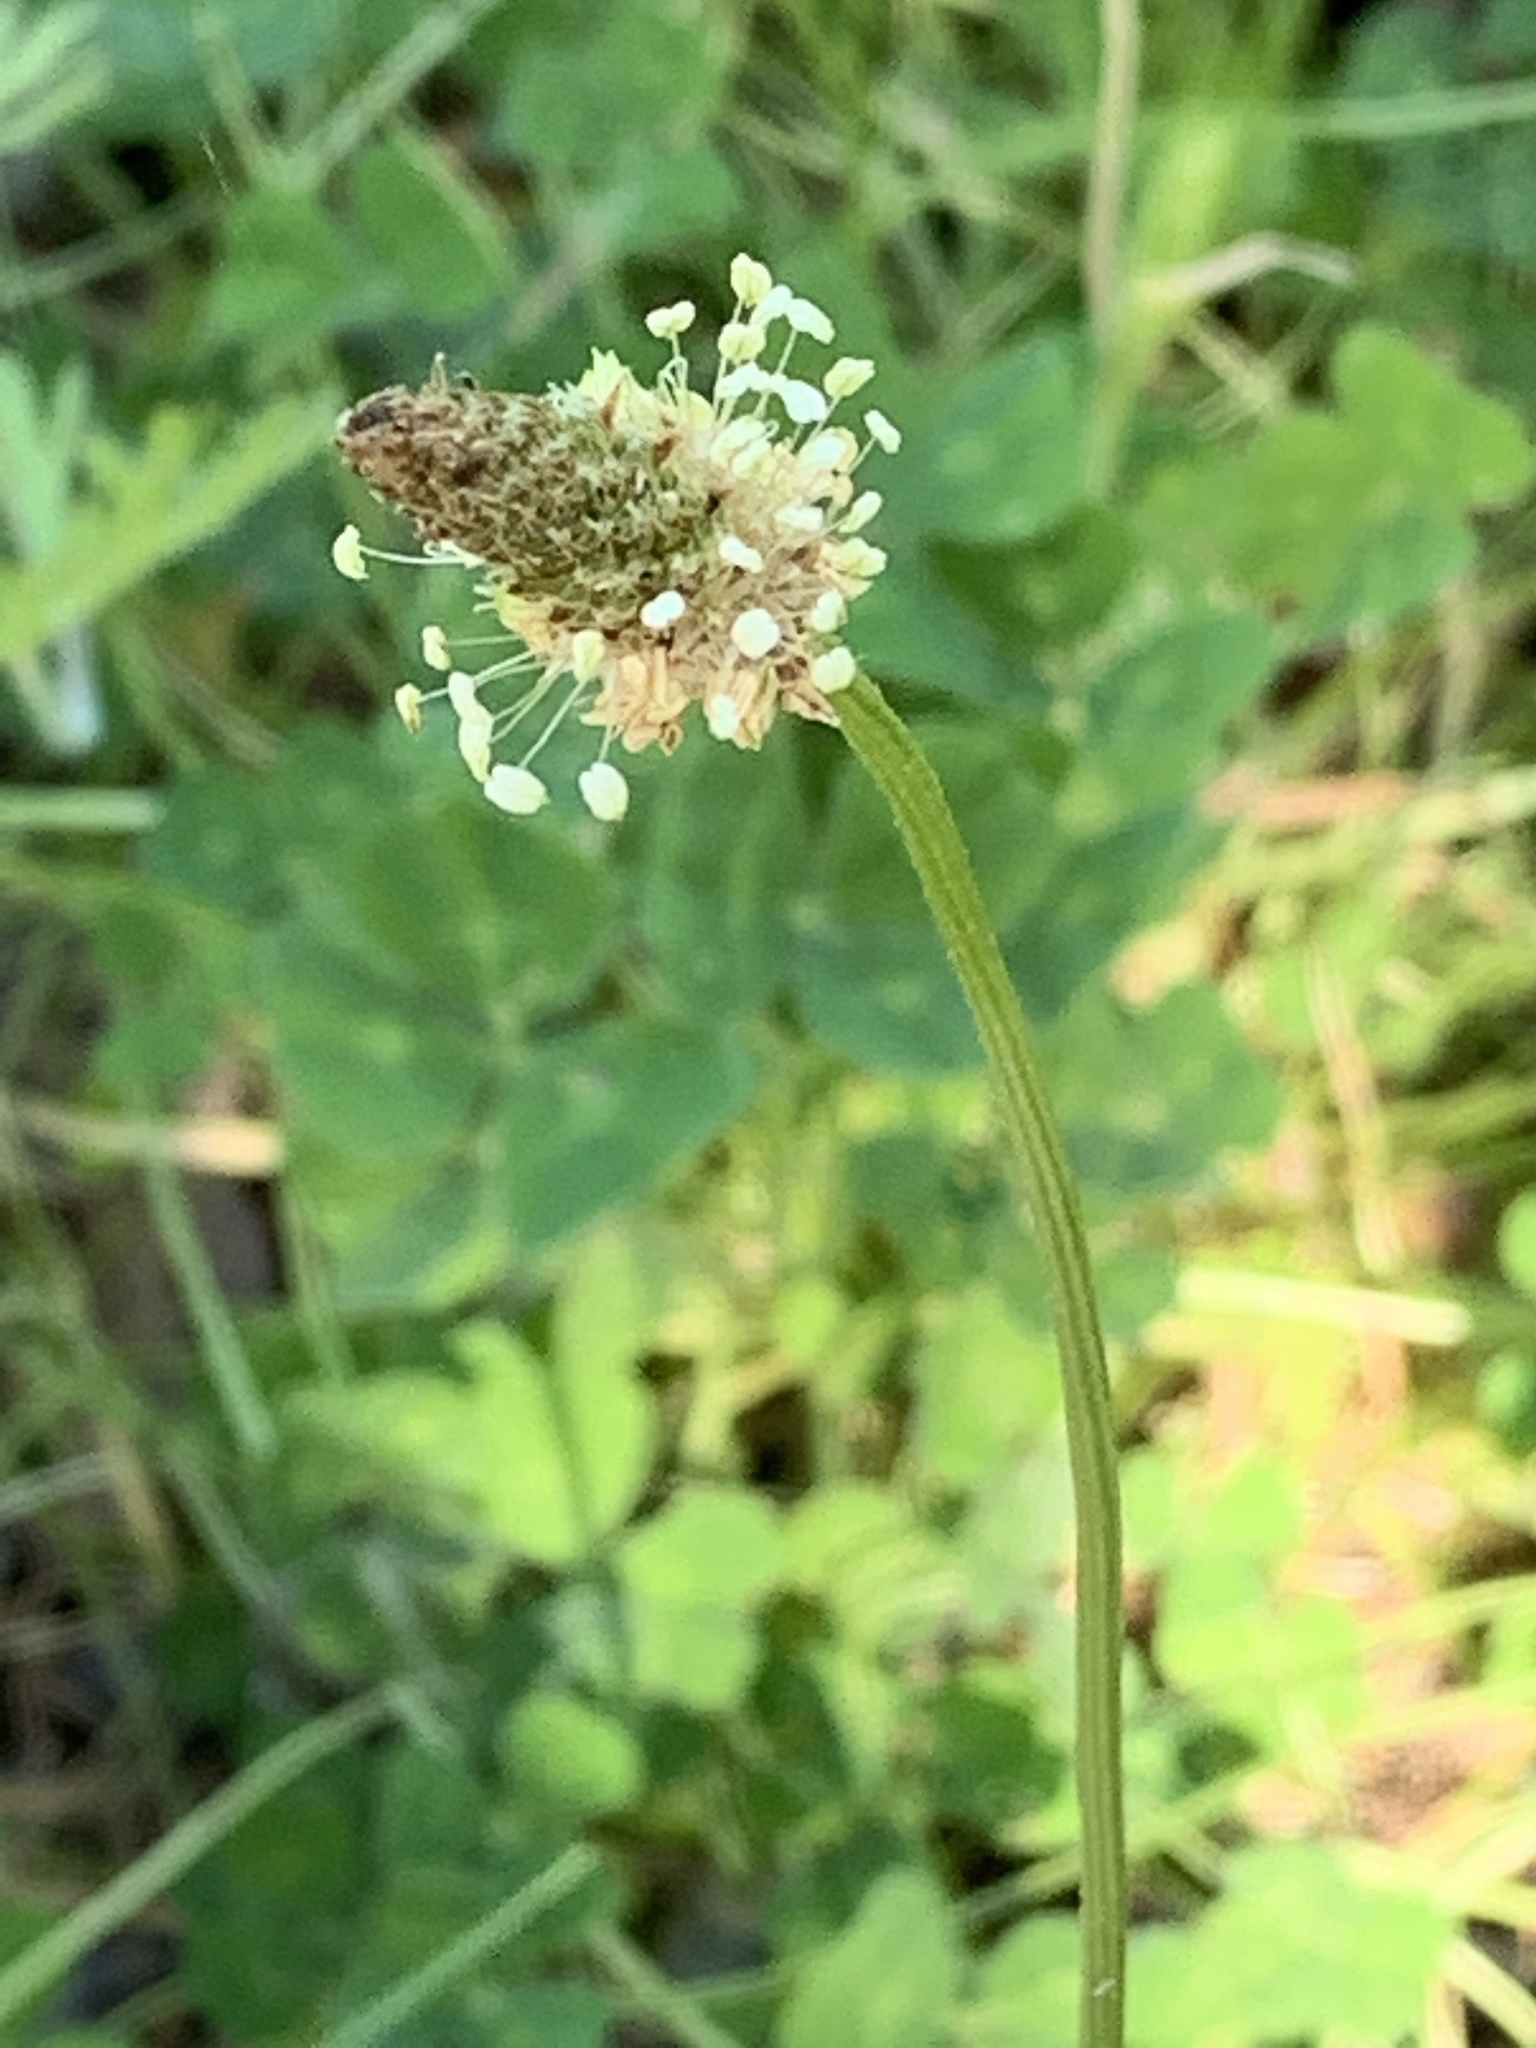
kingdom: Plantae
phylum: Tracheophyta
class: Magnoliopsida
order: Lamiales
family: Plantaginaceae
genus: Plantago
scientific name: Plantago lanceolata
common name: Ribwort plantain
